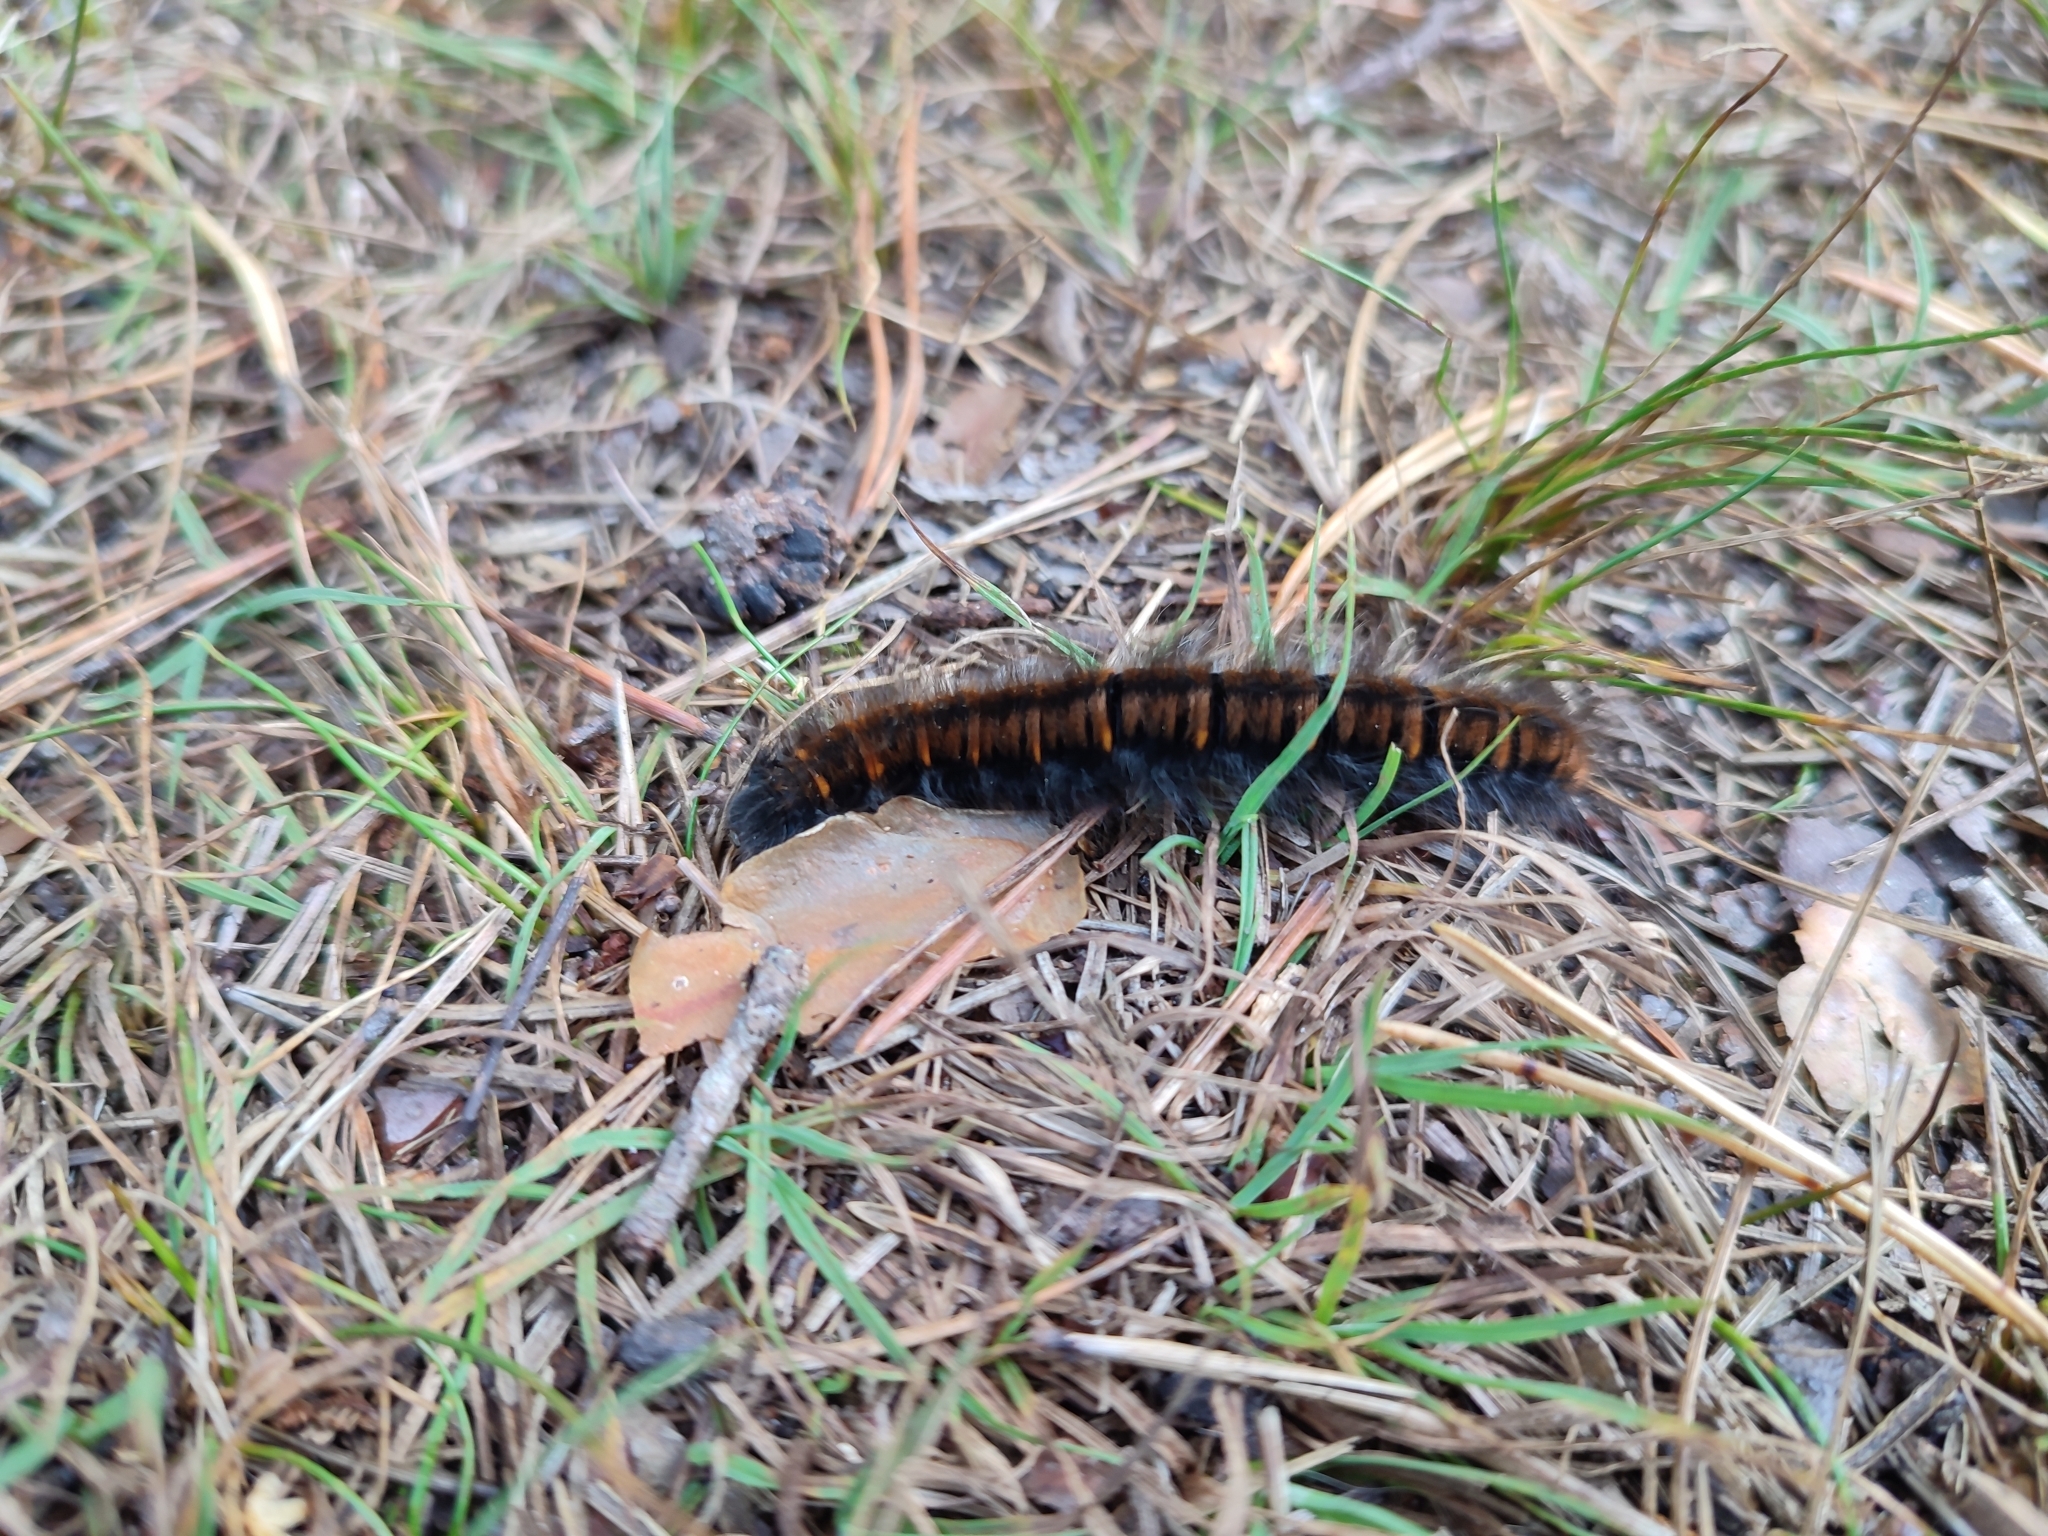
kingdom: Animalia
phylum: Arthropoda
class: Insecta
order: Lepidoptera
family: Lasiocampidae
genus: Macrothylacia
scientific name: Macrothylacia rubi
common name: Fox moth
